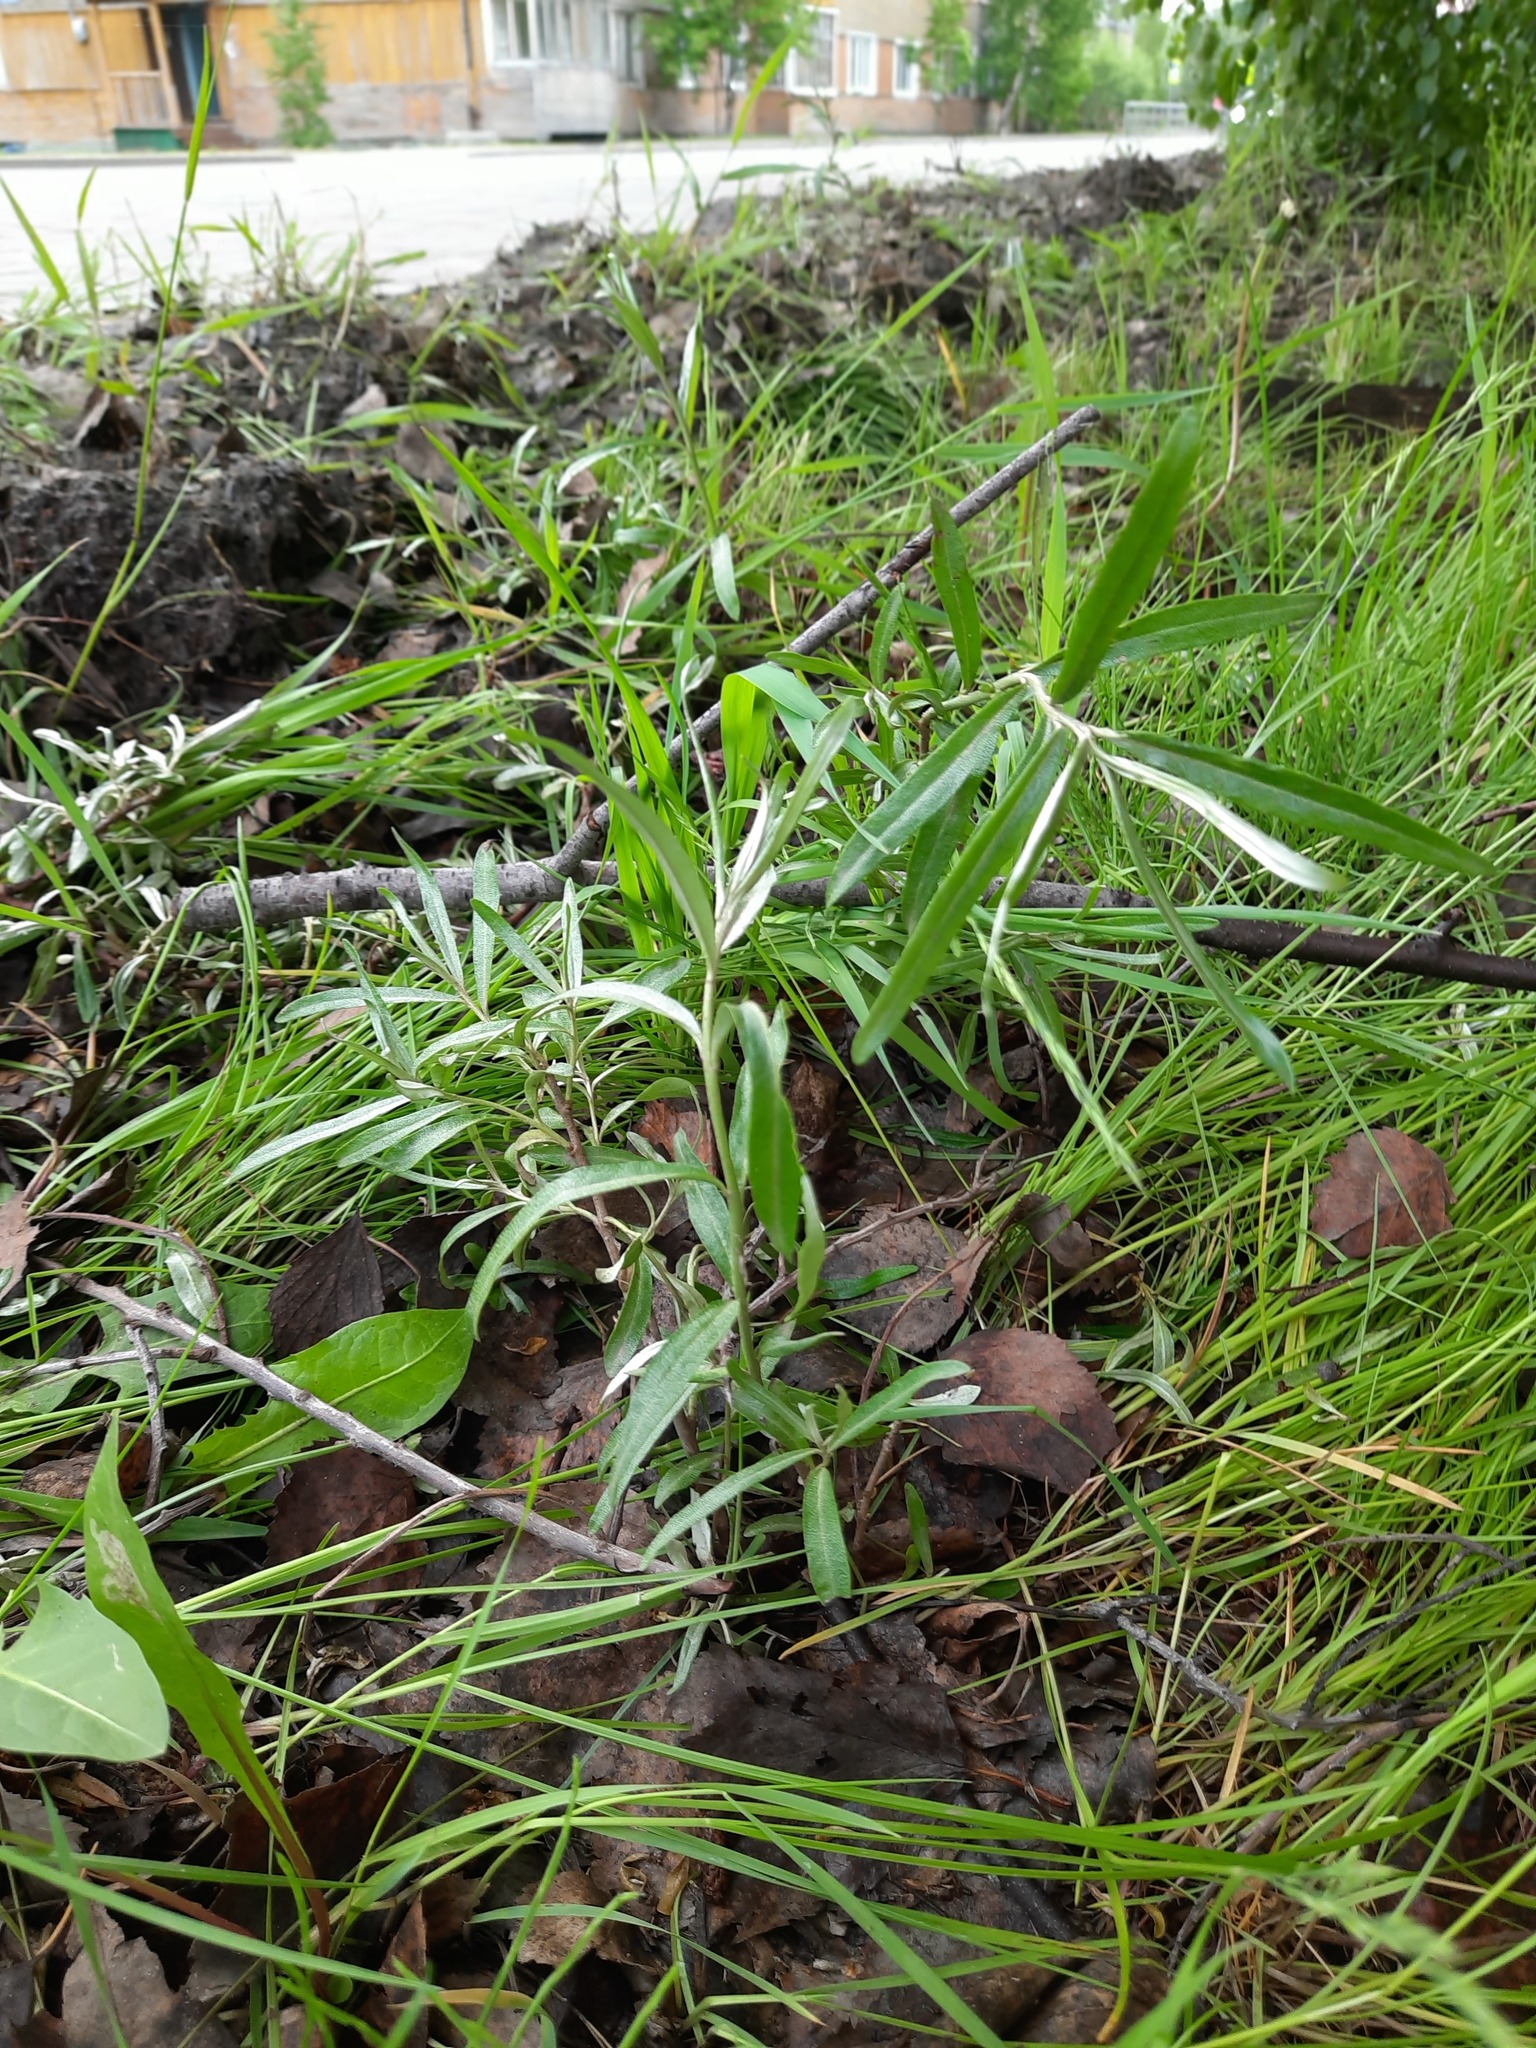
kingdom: Plantae
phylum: Tracheophyta
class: Magnoliopsida
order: Rosales
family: Elaeagnaceae
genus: Hippophae
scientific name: Hippophae rhamnoides
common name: Sea-buckthorn
